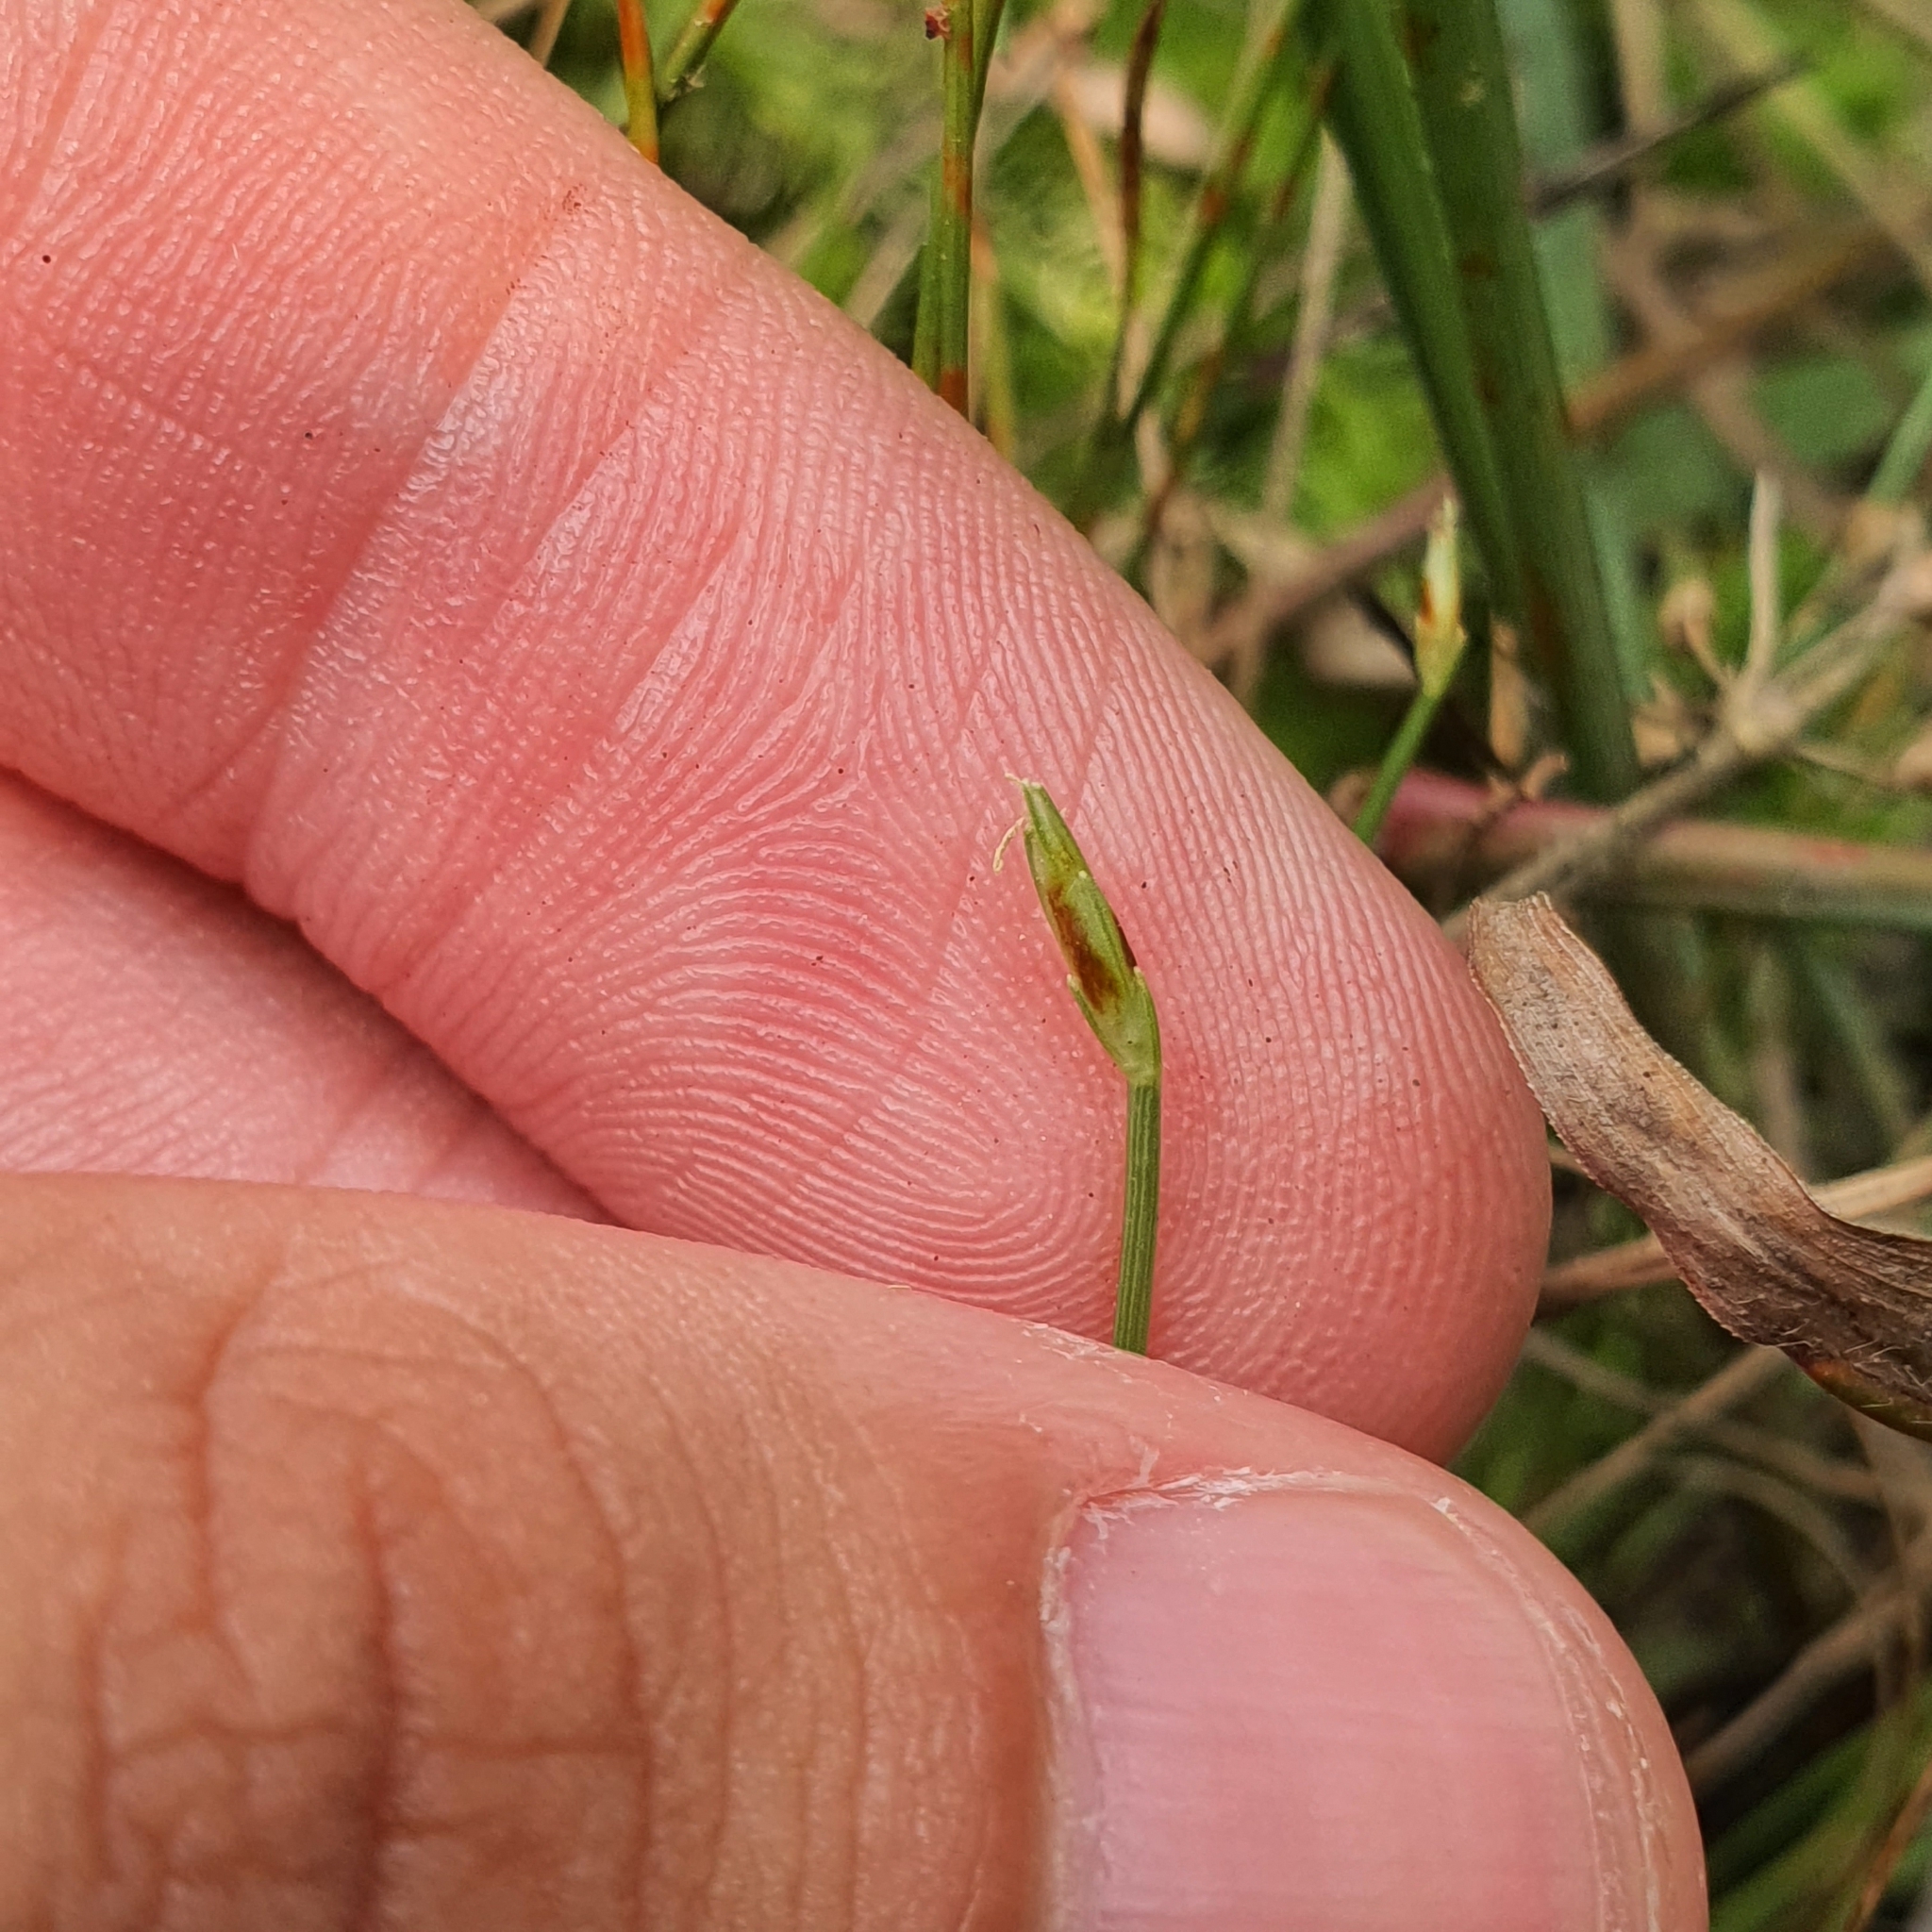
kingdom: Plantae
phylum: Tracheophyta
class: Liliopsida
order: Poales
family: Cyperaceae
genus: Fimbristylis
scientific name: Fimbristylis acuminata
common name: Pointed fimbristylis
